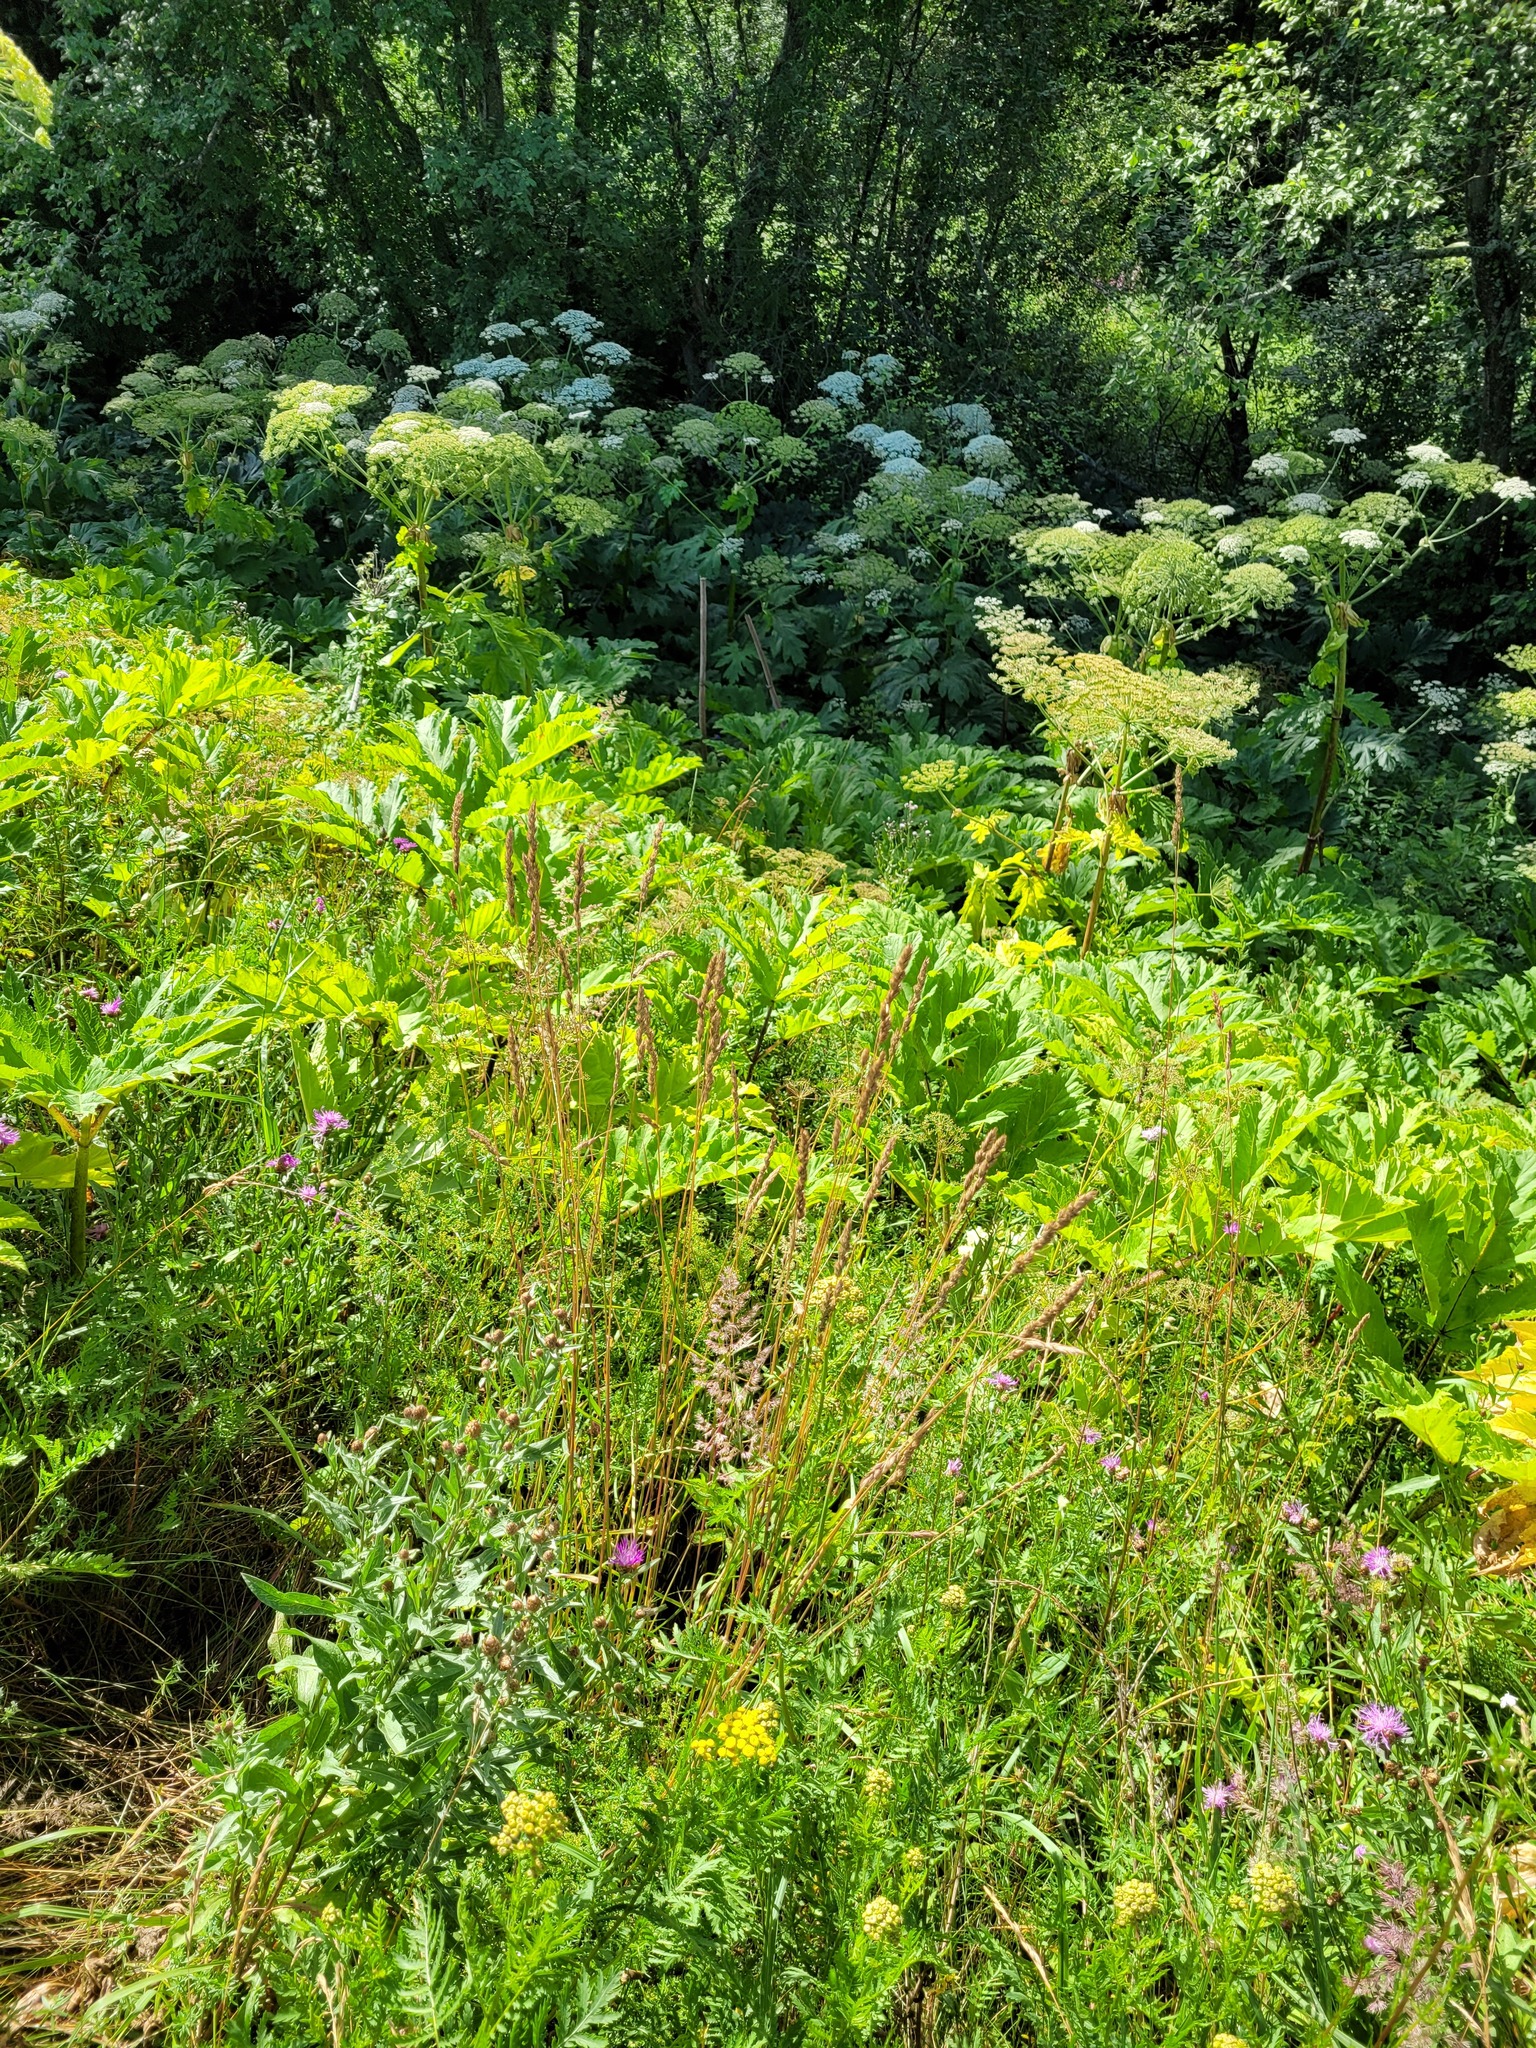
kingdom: Plantae
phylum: Tracheophyta
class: Liliopsida
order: Poales
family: Poaceae
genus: Dactylis
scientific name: Dactylis glomerata
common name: Orchardgrass
